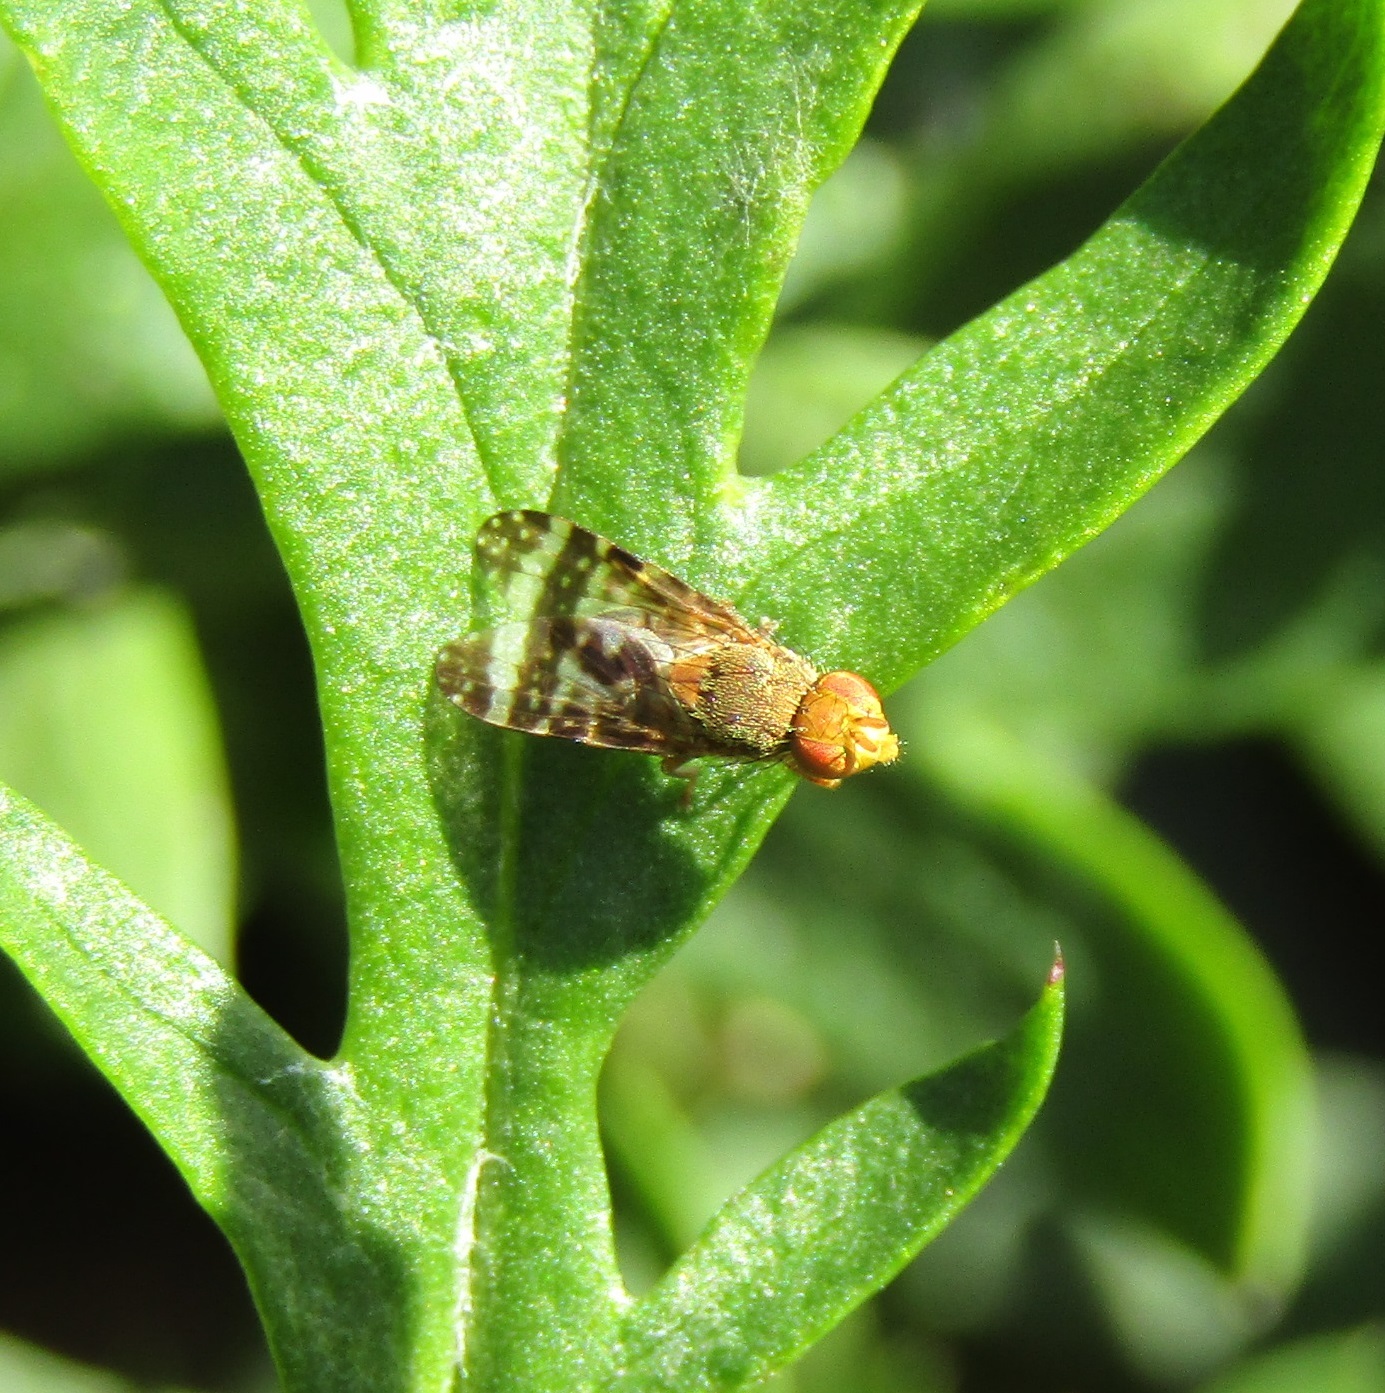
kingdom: Animalia
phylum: Arthropoda
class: Insecta
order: Diptera
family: Tephritidae
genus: Sphenella
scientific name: Sphenella
